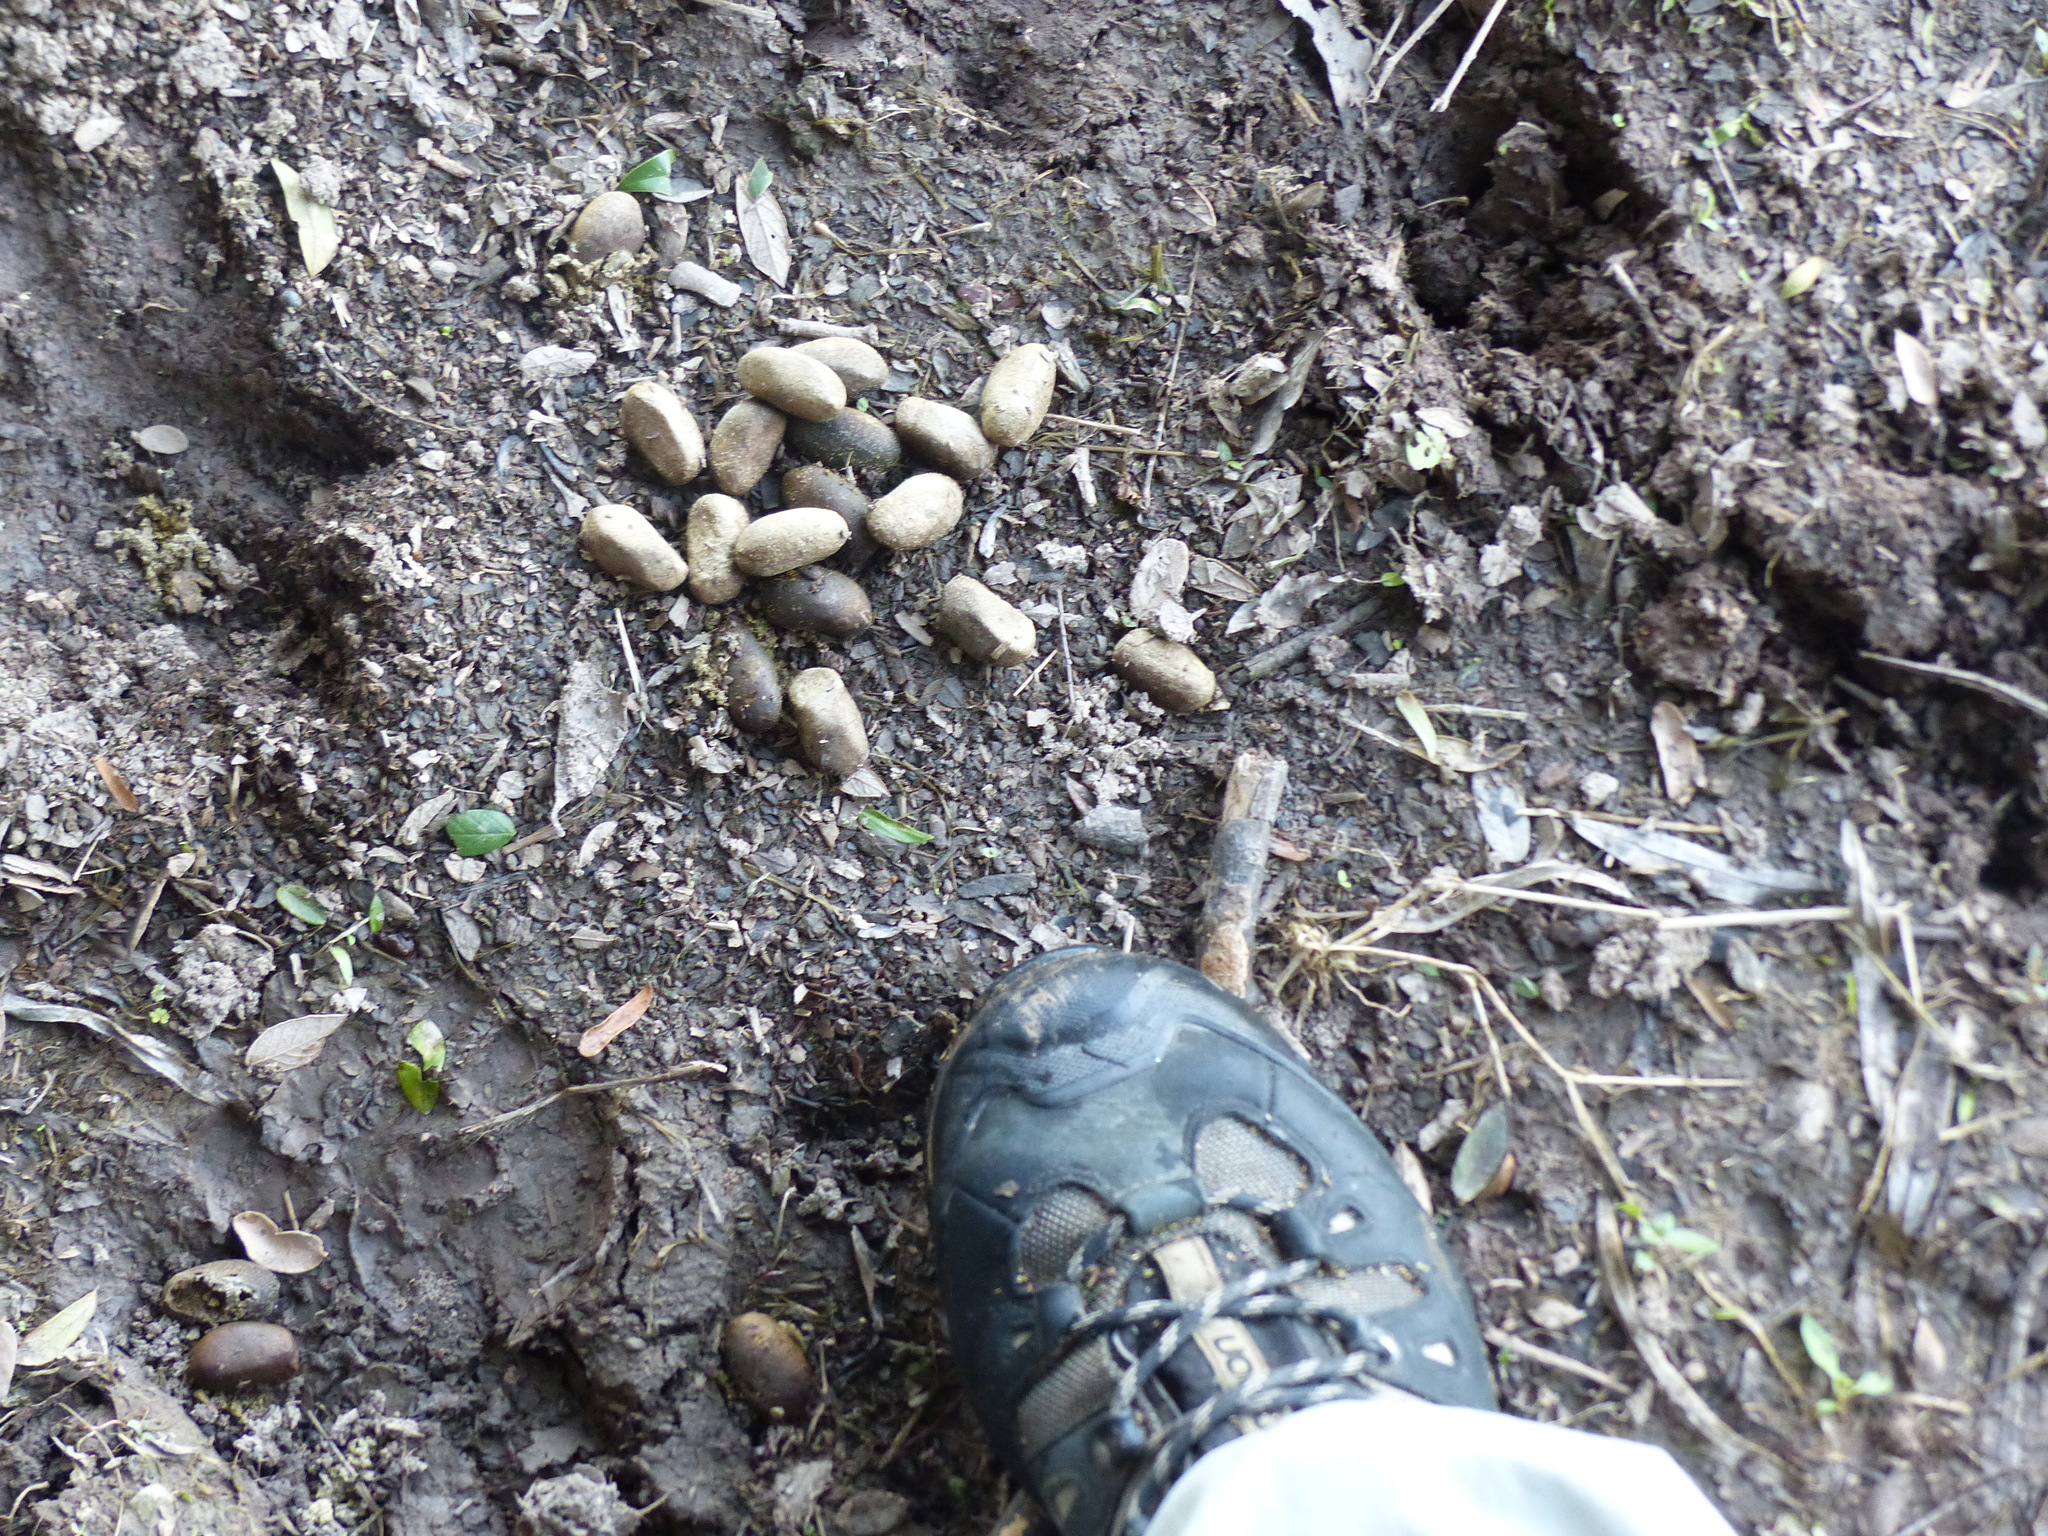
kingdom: Animalia
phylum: Chordata
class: Mammalia
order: Rodentia
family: Caviidae
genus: Hydrochoerus
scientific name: Hydrochoerus hydrochaeris
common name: Capybara
